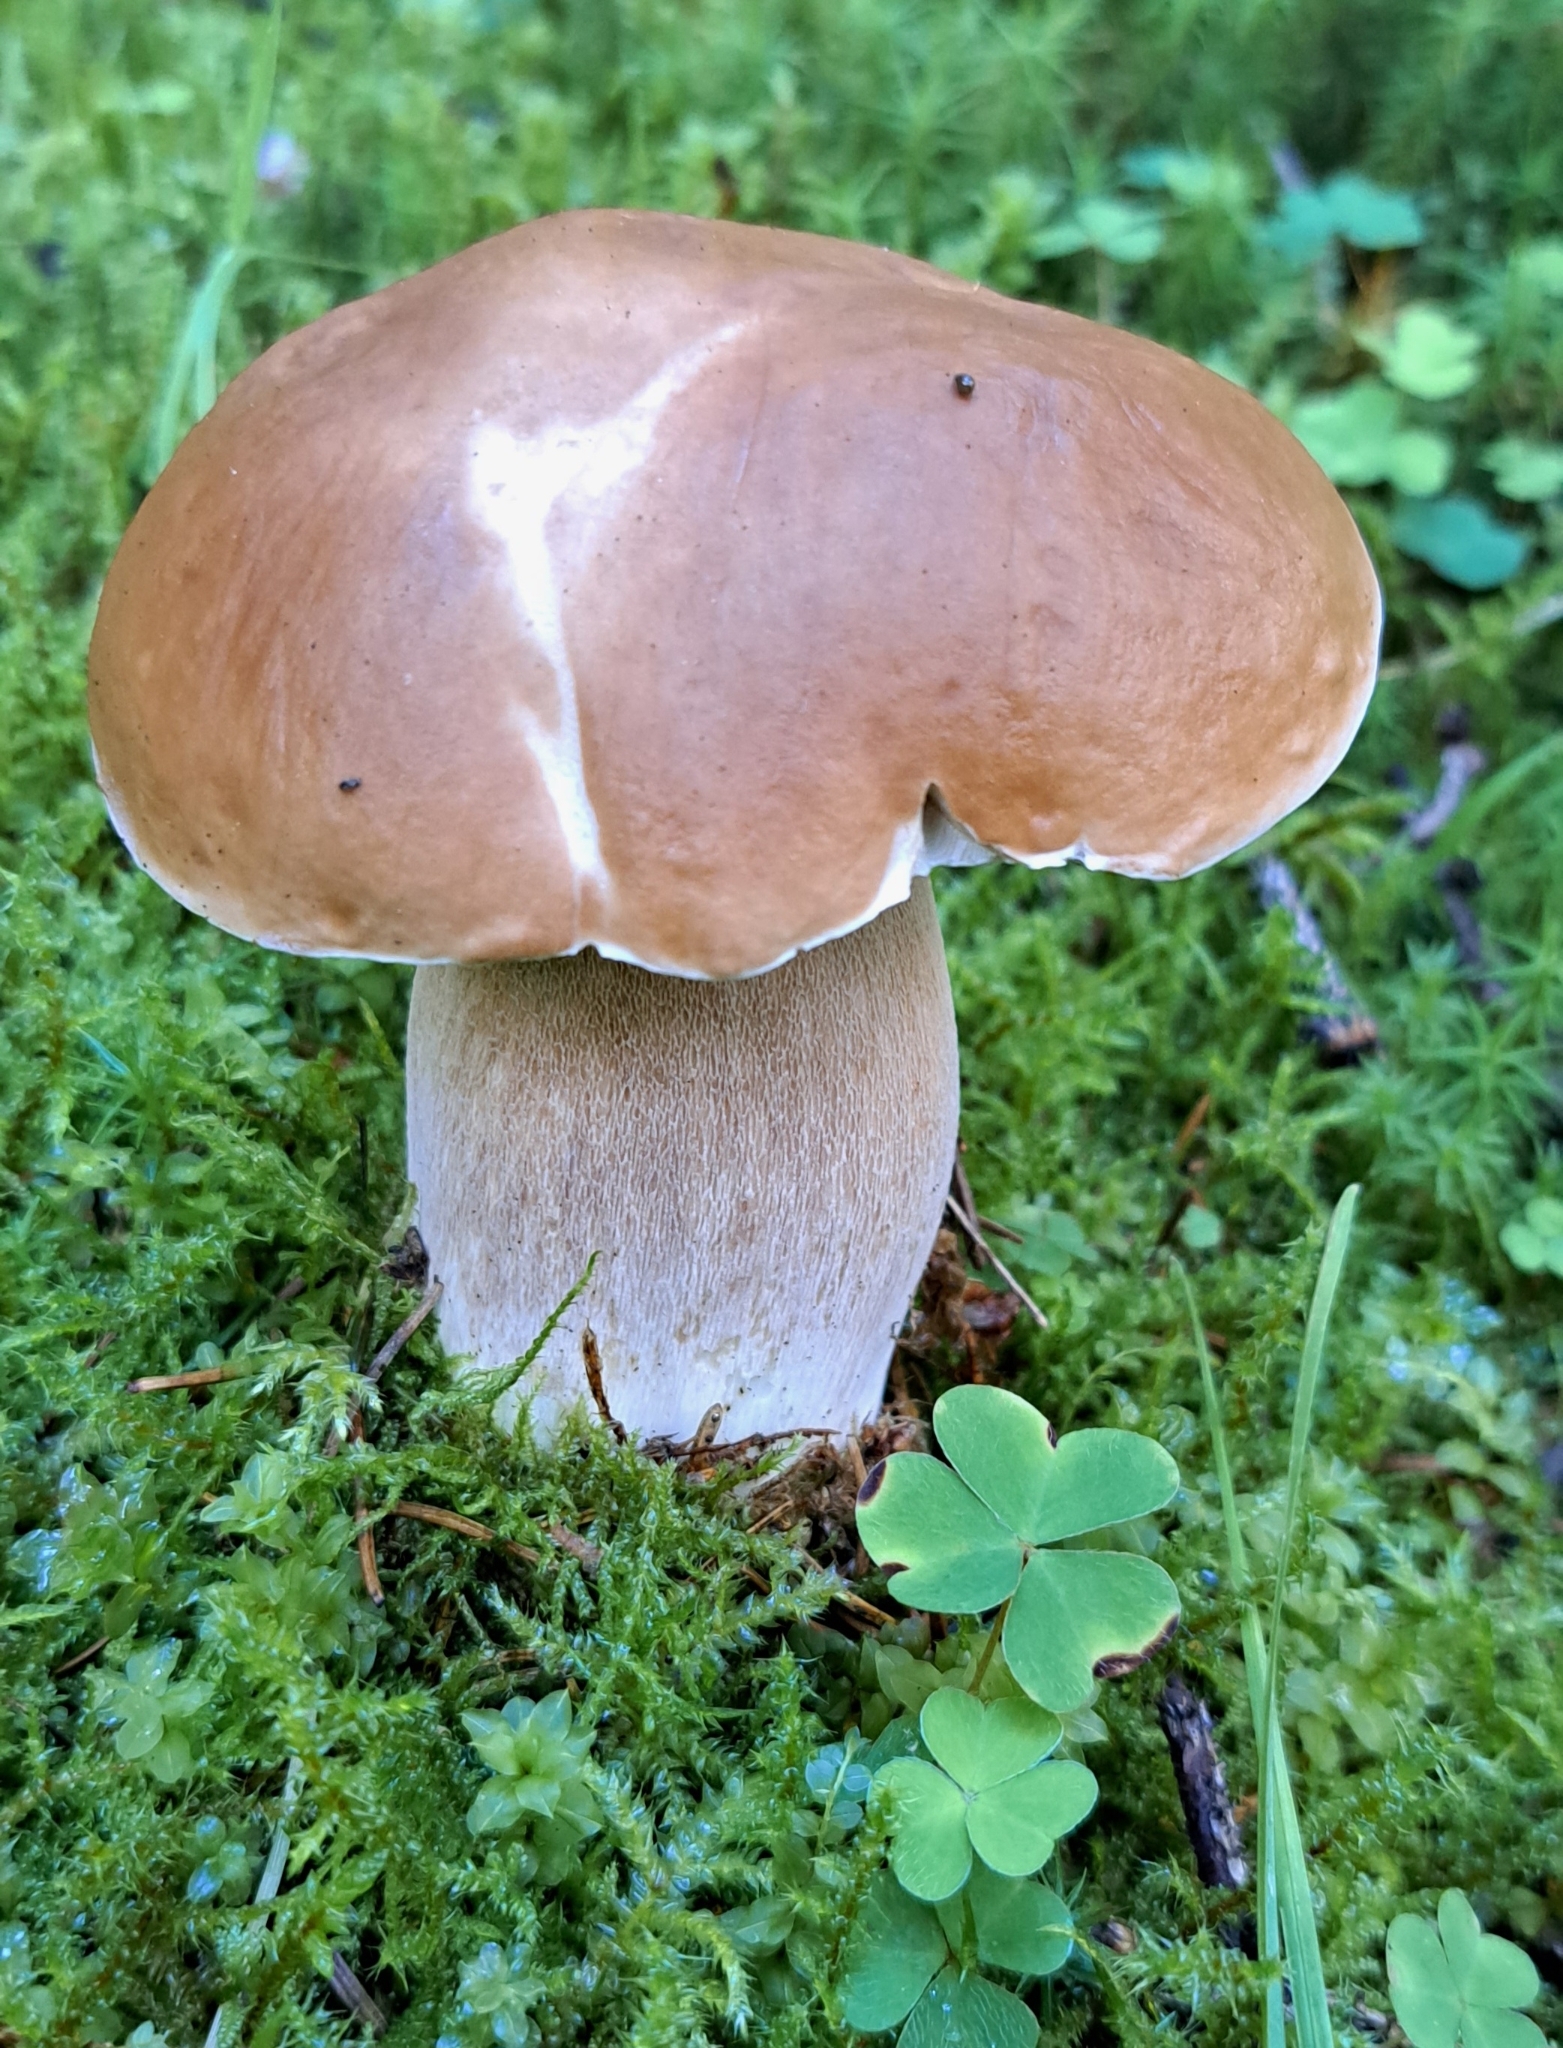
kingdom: Fungi
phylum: Basidiomycota
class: Agaricomycetes
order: Boletales
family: Boletaceae
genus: Boletus
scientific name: Boletus edulis
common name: Cep
